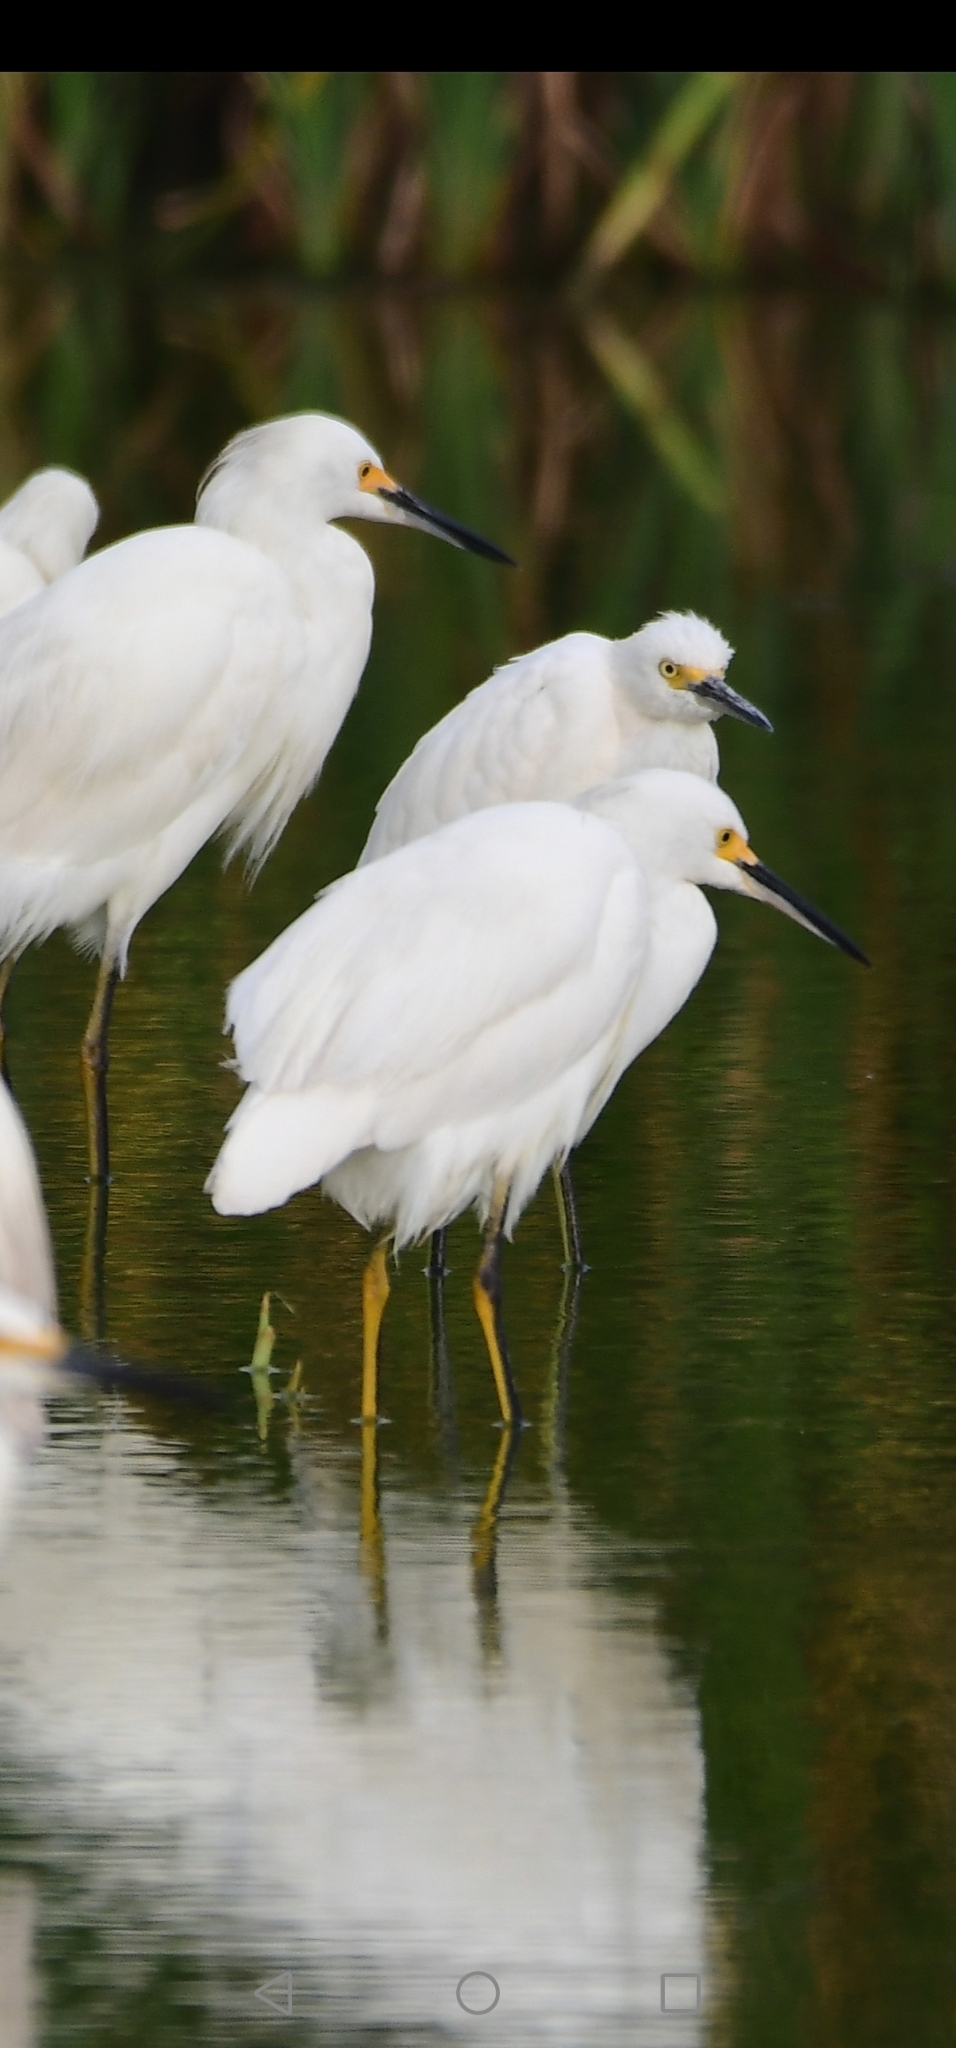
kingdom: Animalia
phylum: Chordata
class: Aves
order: Pelecaniformes
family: Ardeidae
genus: Egretta
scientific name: Egretta thula
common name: Snowy egret
